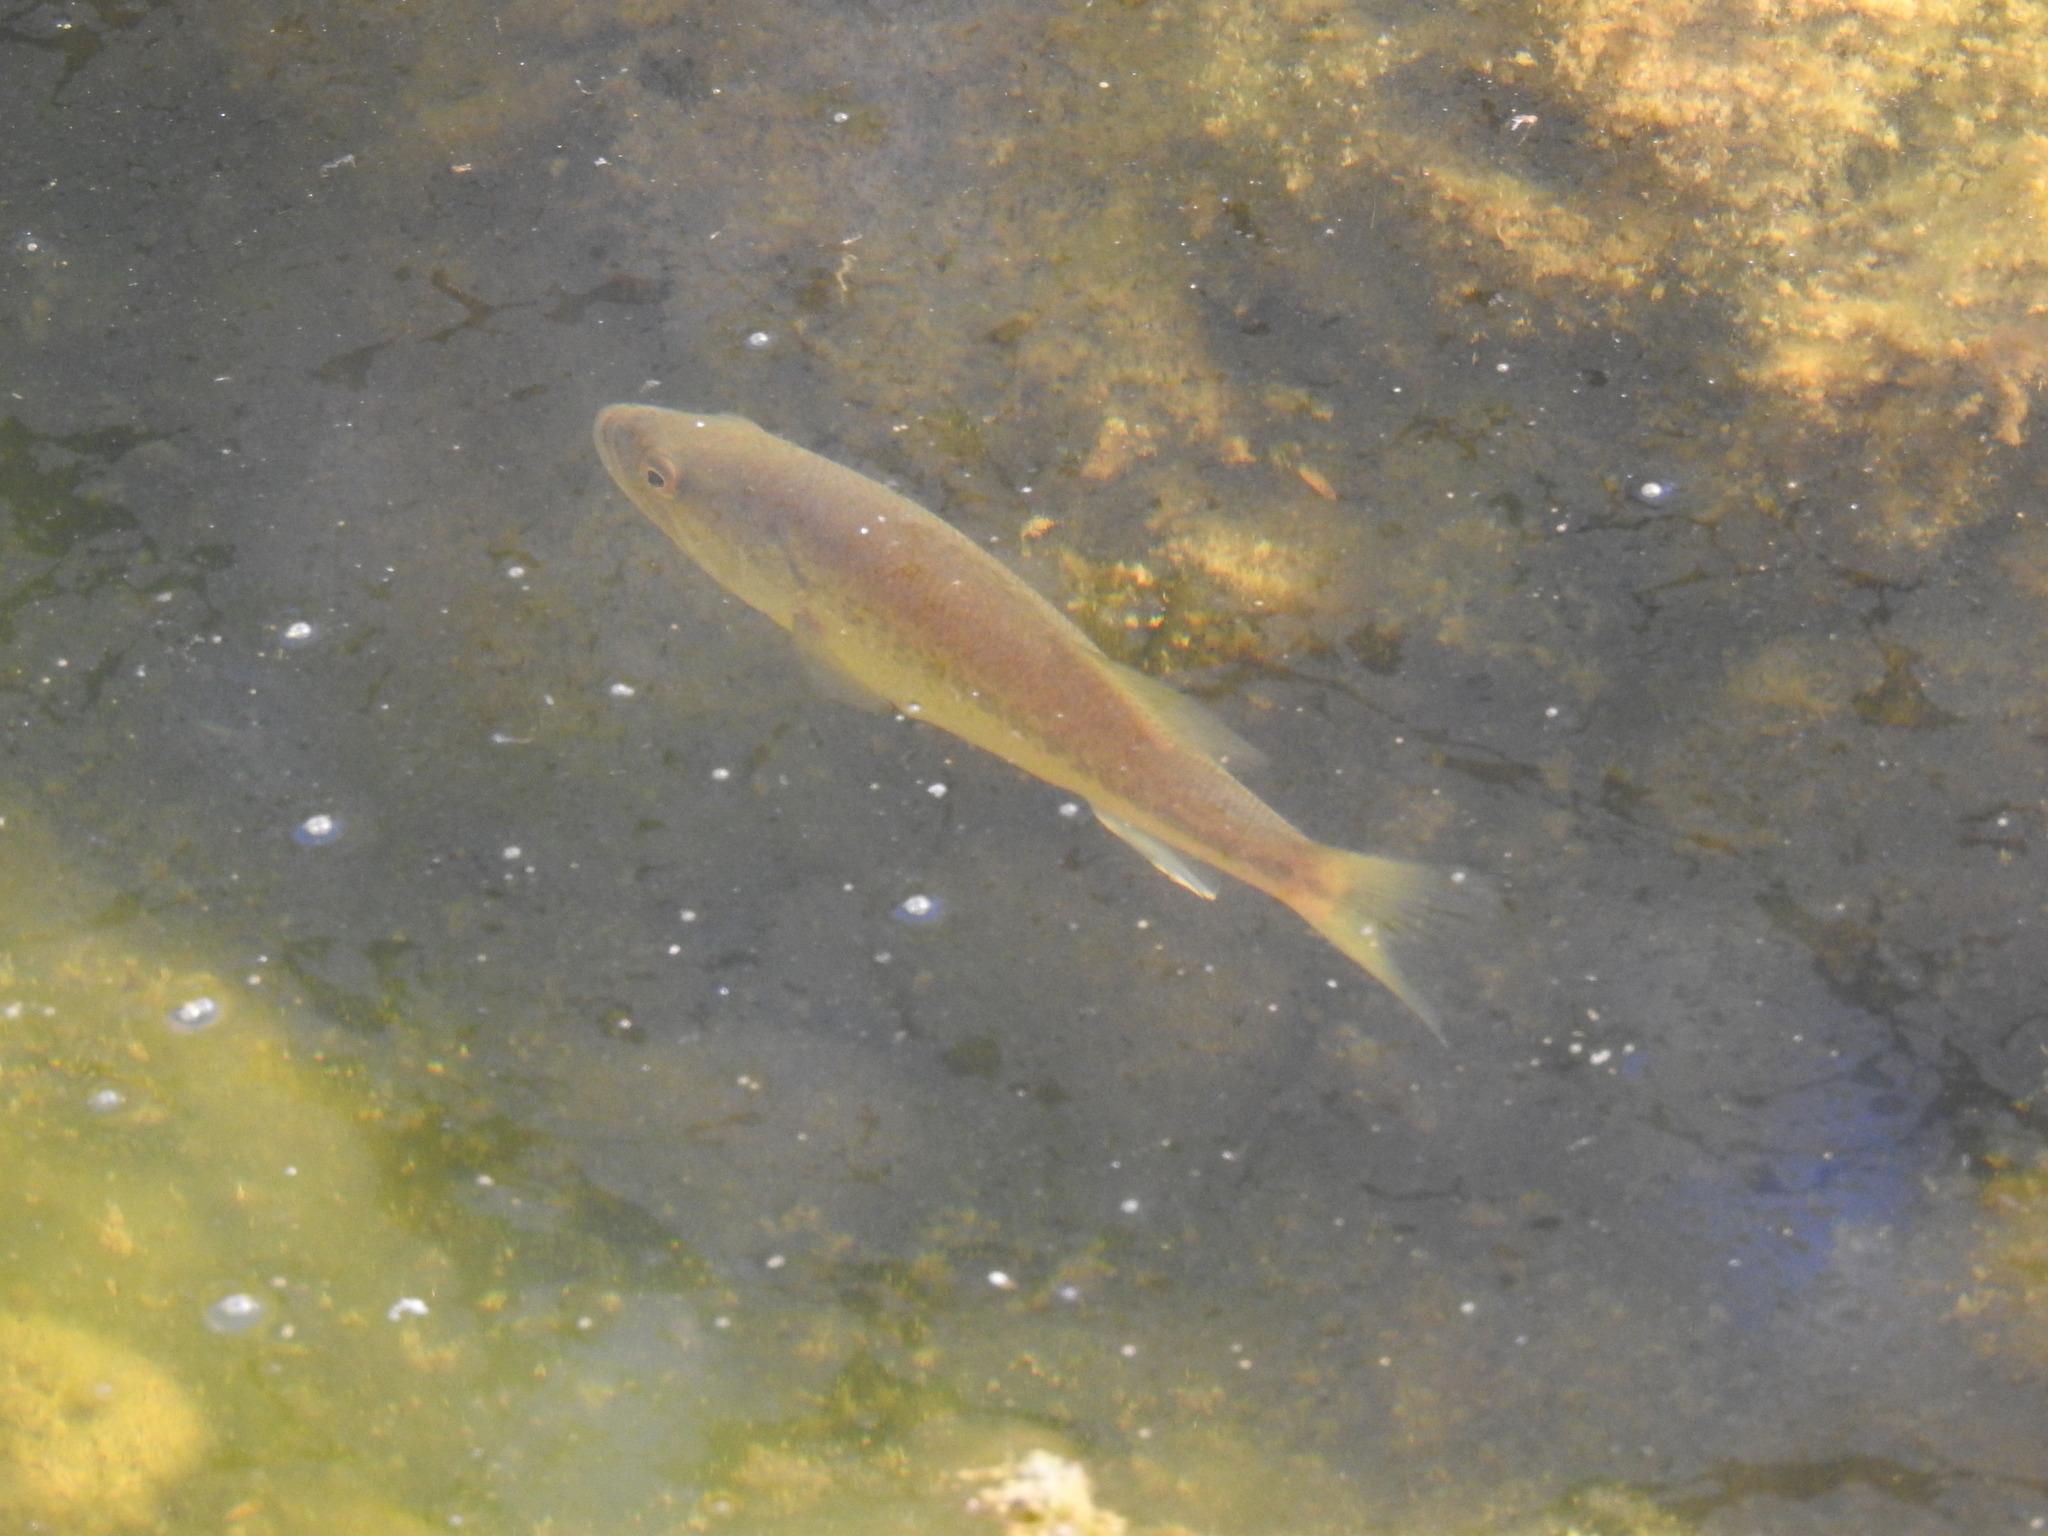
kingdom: Animalia
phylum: Chordata
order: Perciformes
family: Centrarchidae
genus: Micropterus
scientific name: Micropterus
